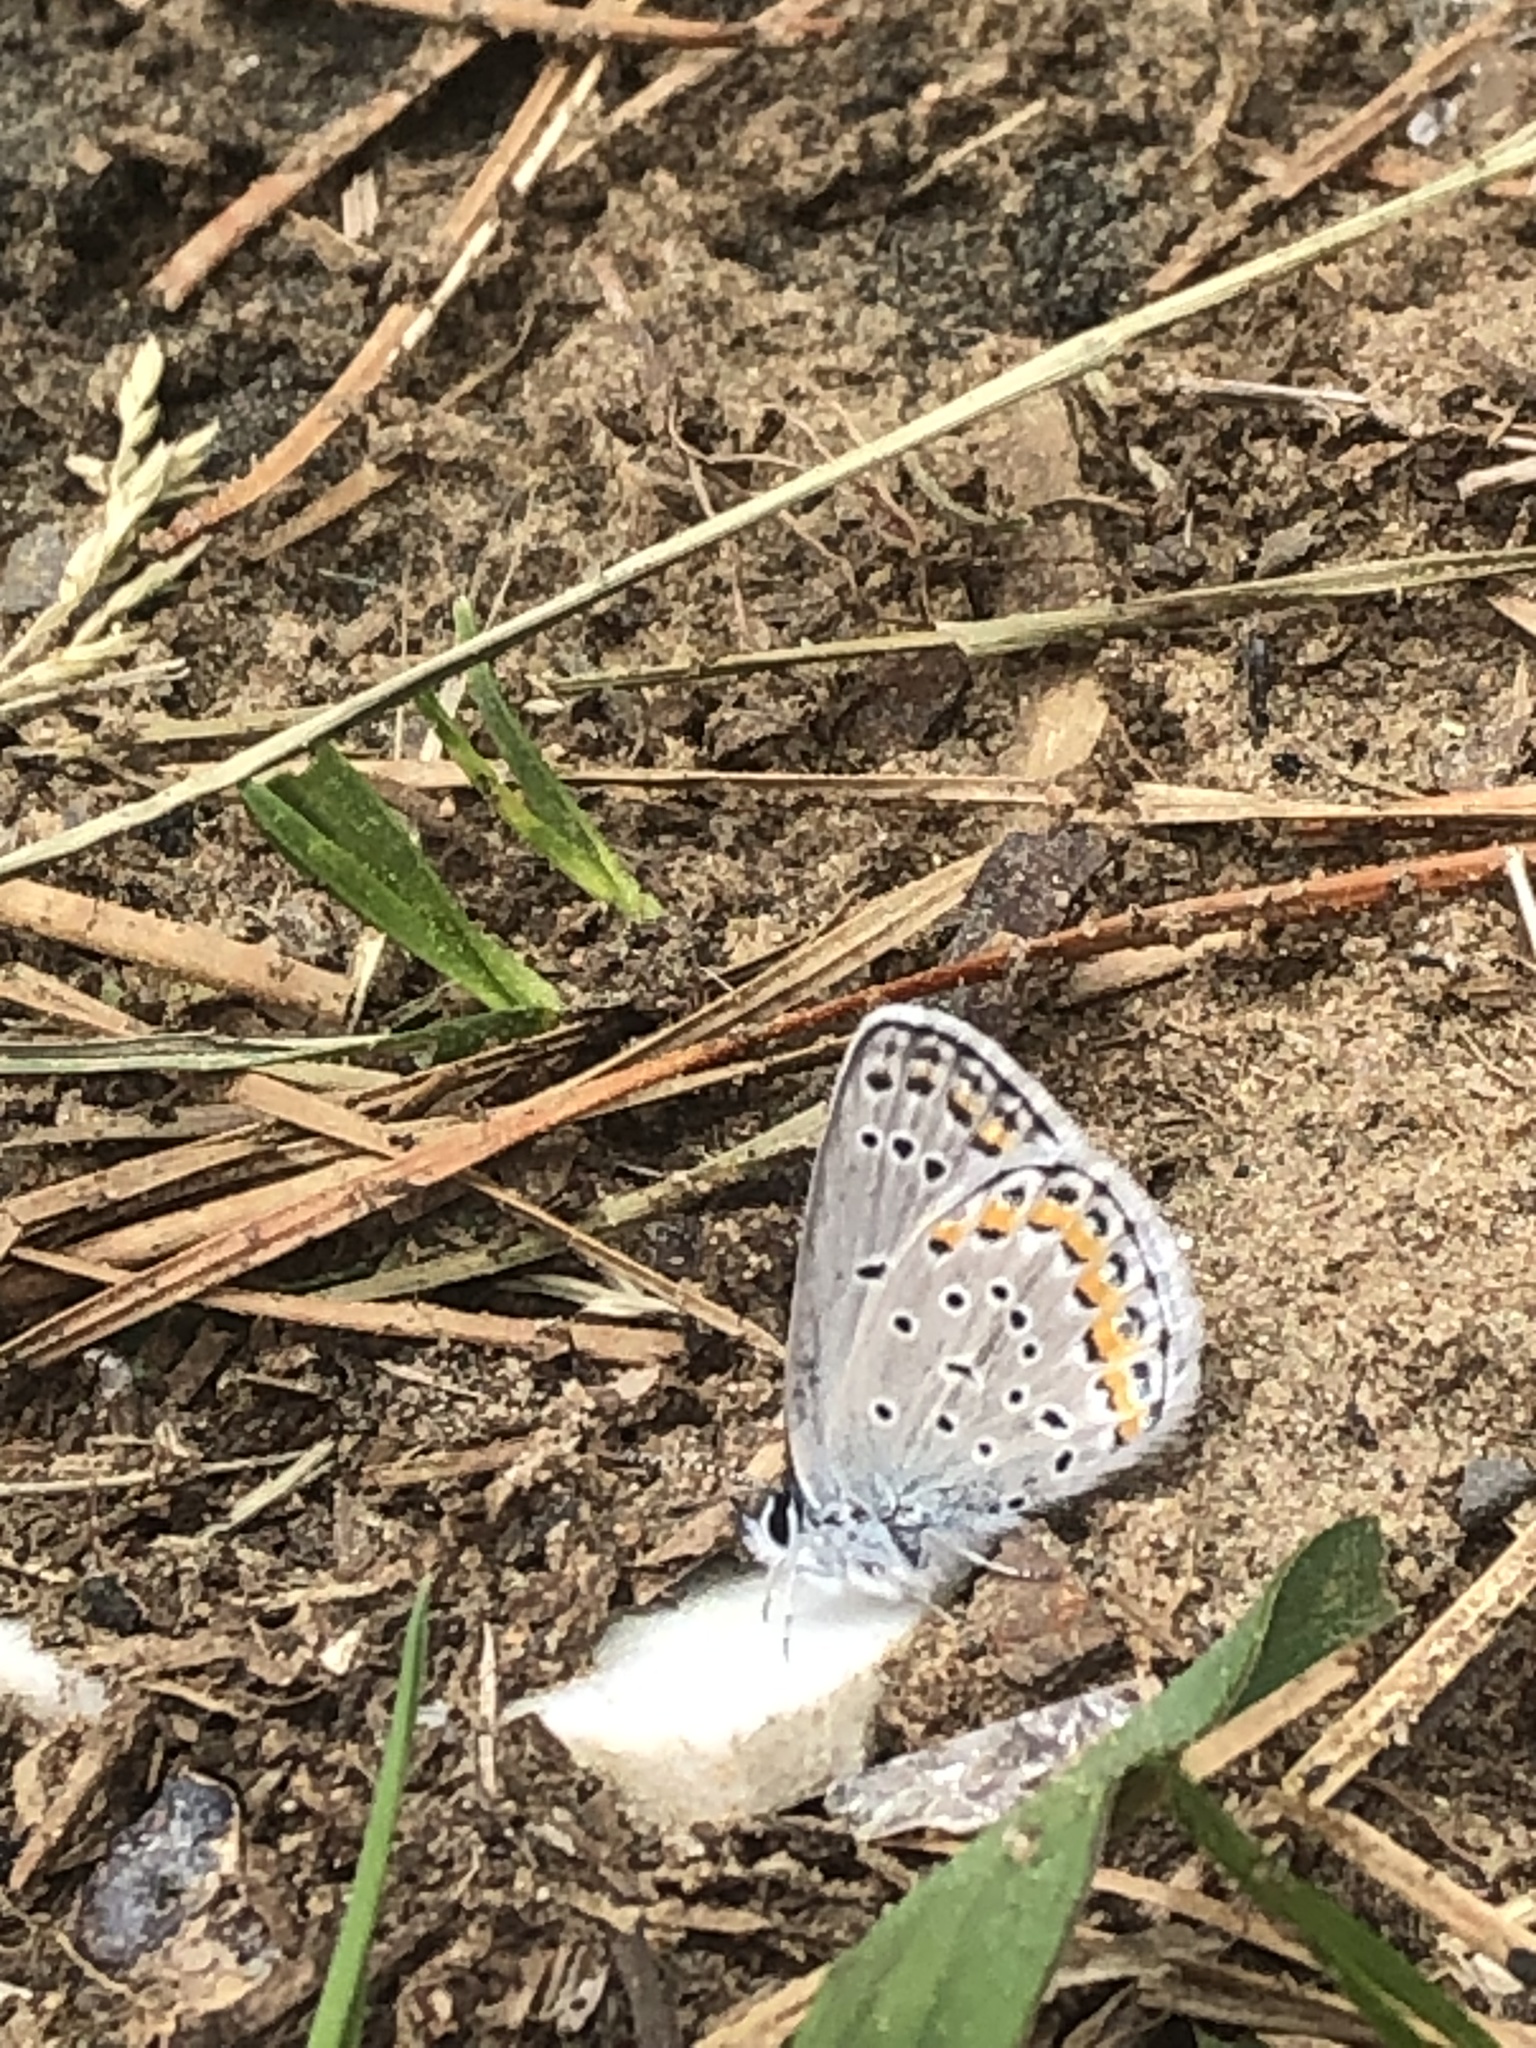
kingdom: Animalia
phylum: Arthropoda
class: Insecta
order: Lepidoptera
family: Lycaenidae
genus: Plebejus
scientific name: Plebejus samuelis
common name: Karner blue
